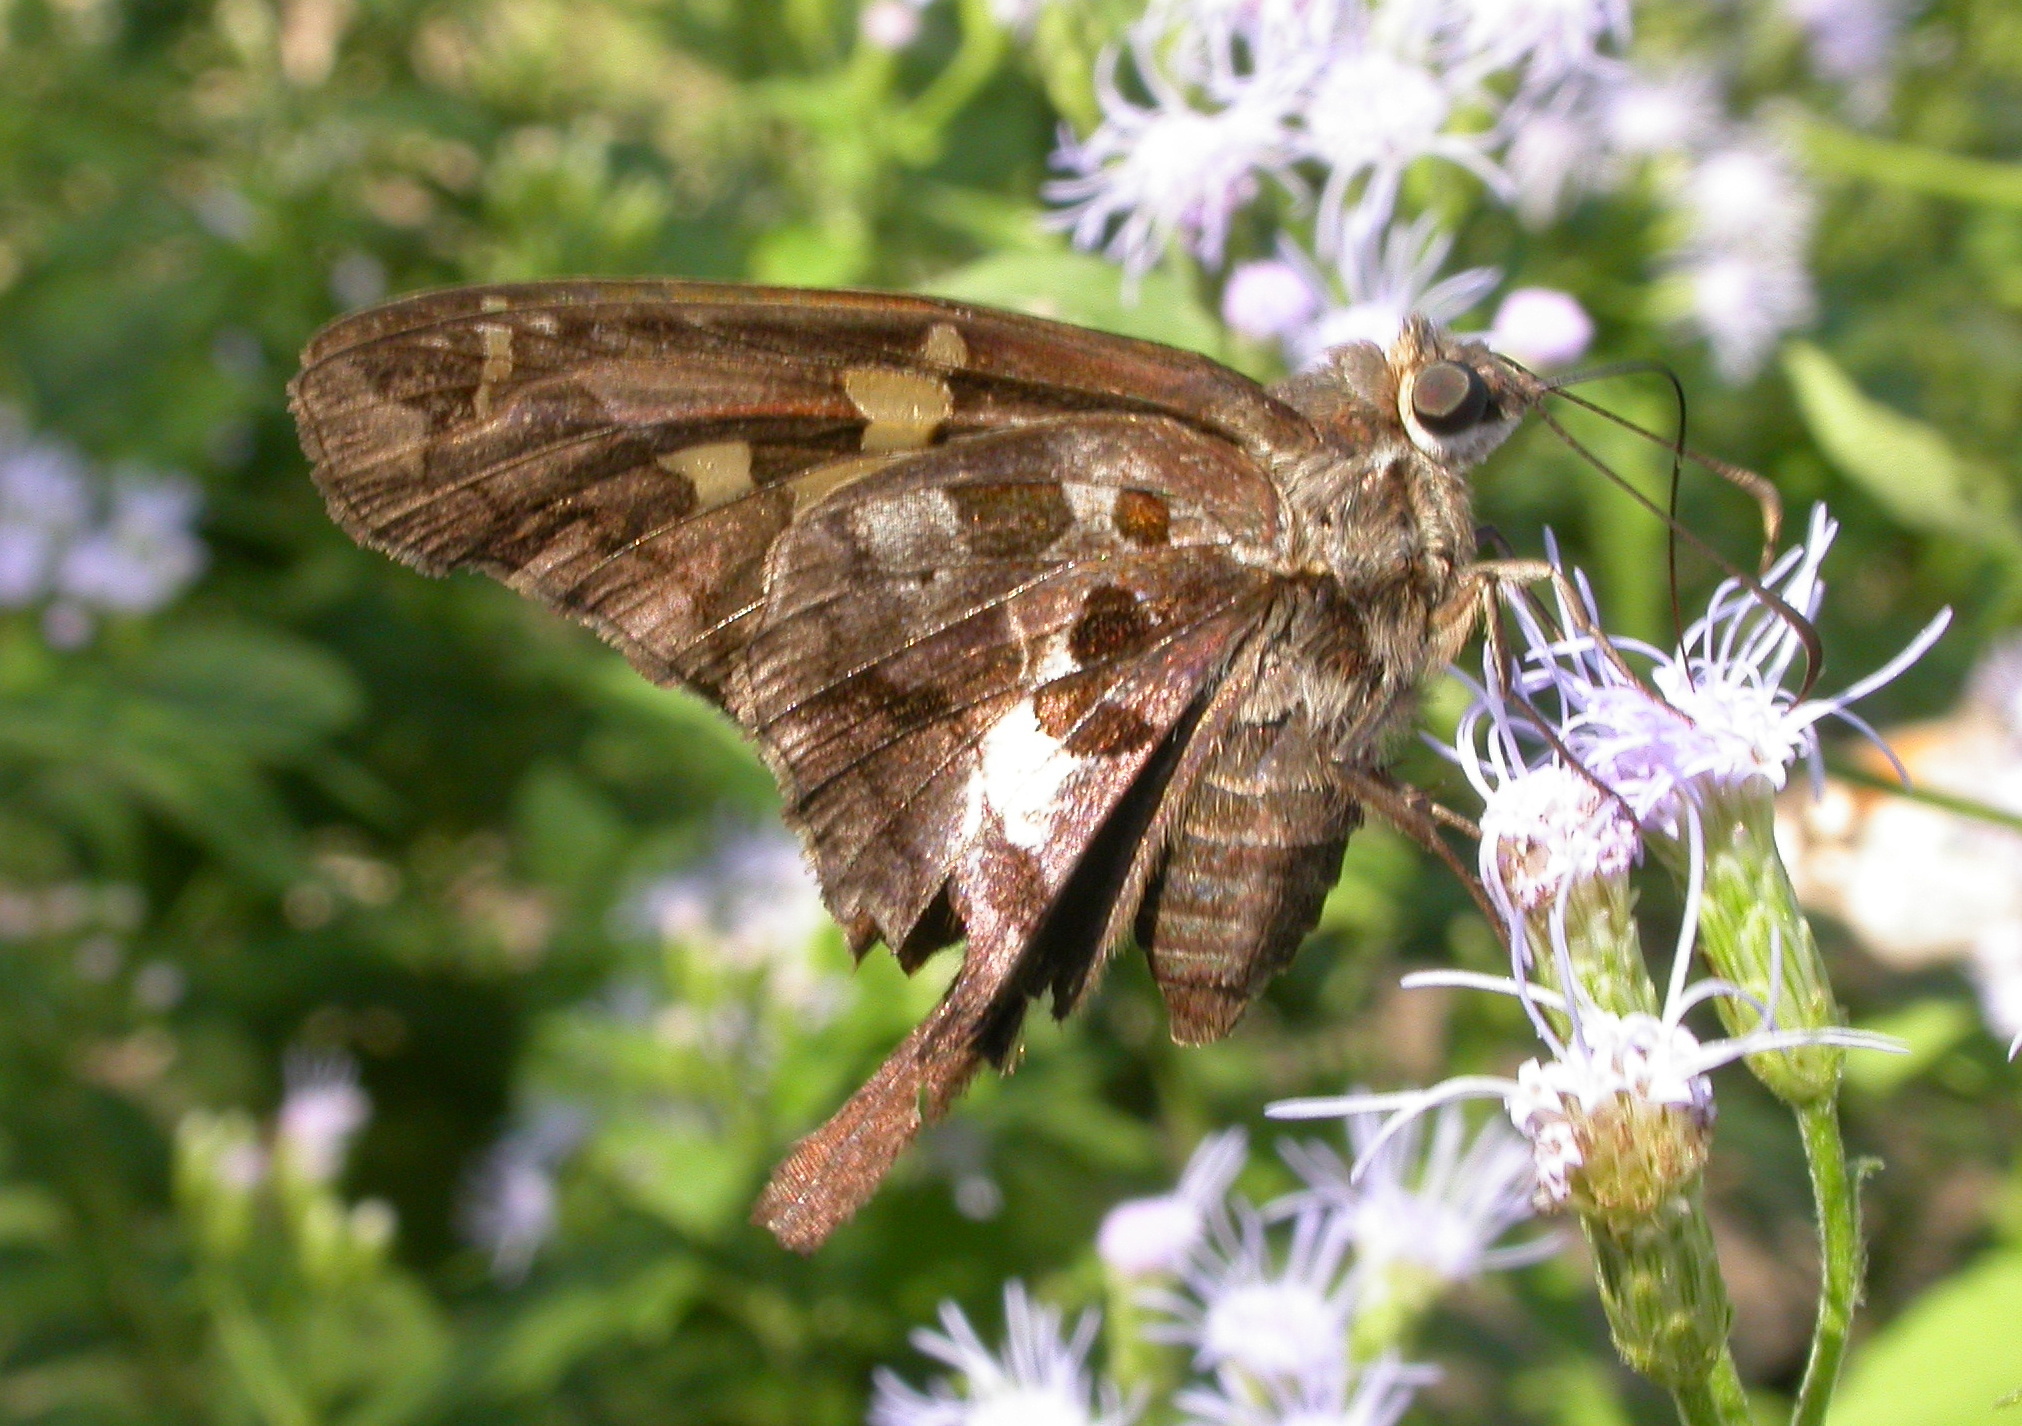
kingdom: Animalia
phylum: Arthropoda
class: Insecta
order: Lepidoptera
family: Hesperiidae
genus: Chioides
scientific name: Chioides zilpa
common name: Zilpa longtail
